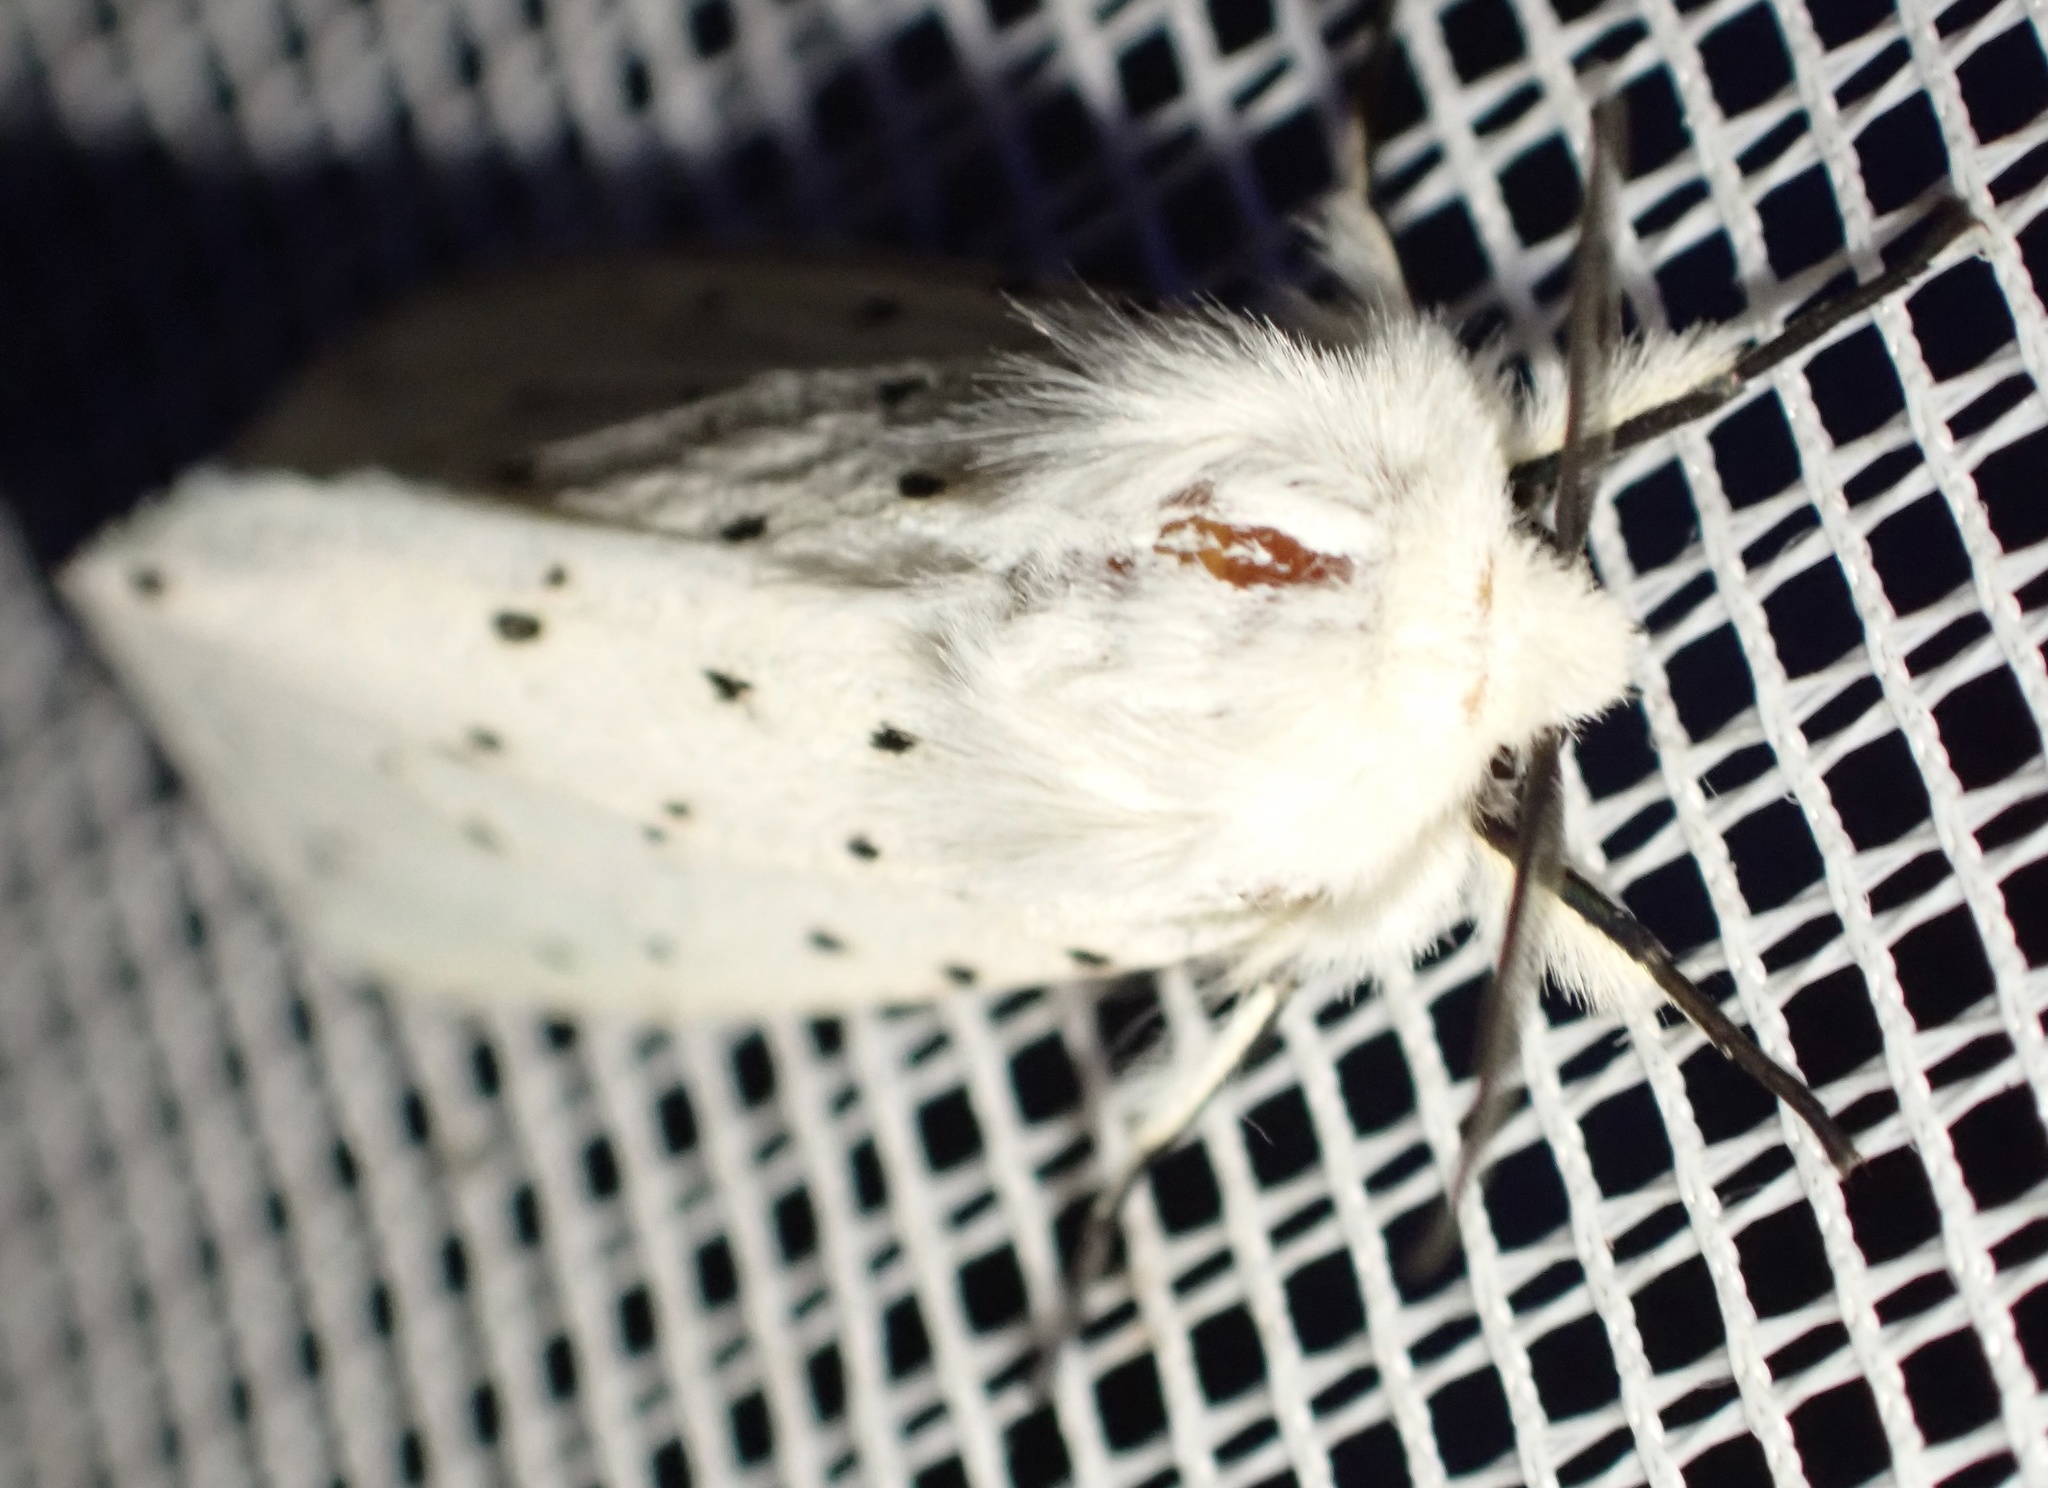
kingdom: Animalia
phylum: Arthropoda
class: Insecta
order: Lepidoptera
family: Erebidae
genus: Spilosoma
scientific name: Spilosoma lubricipeda
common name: White ermine
